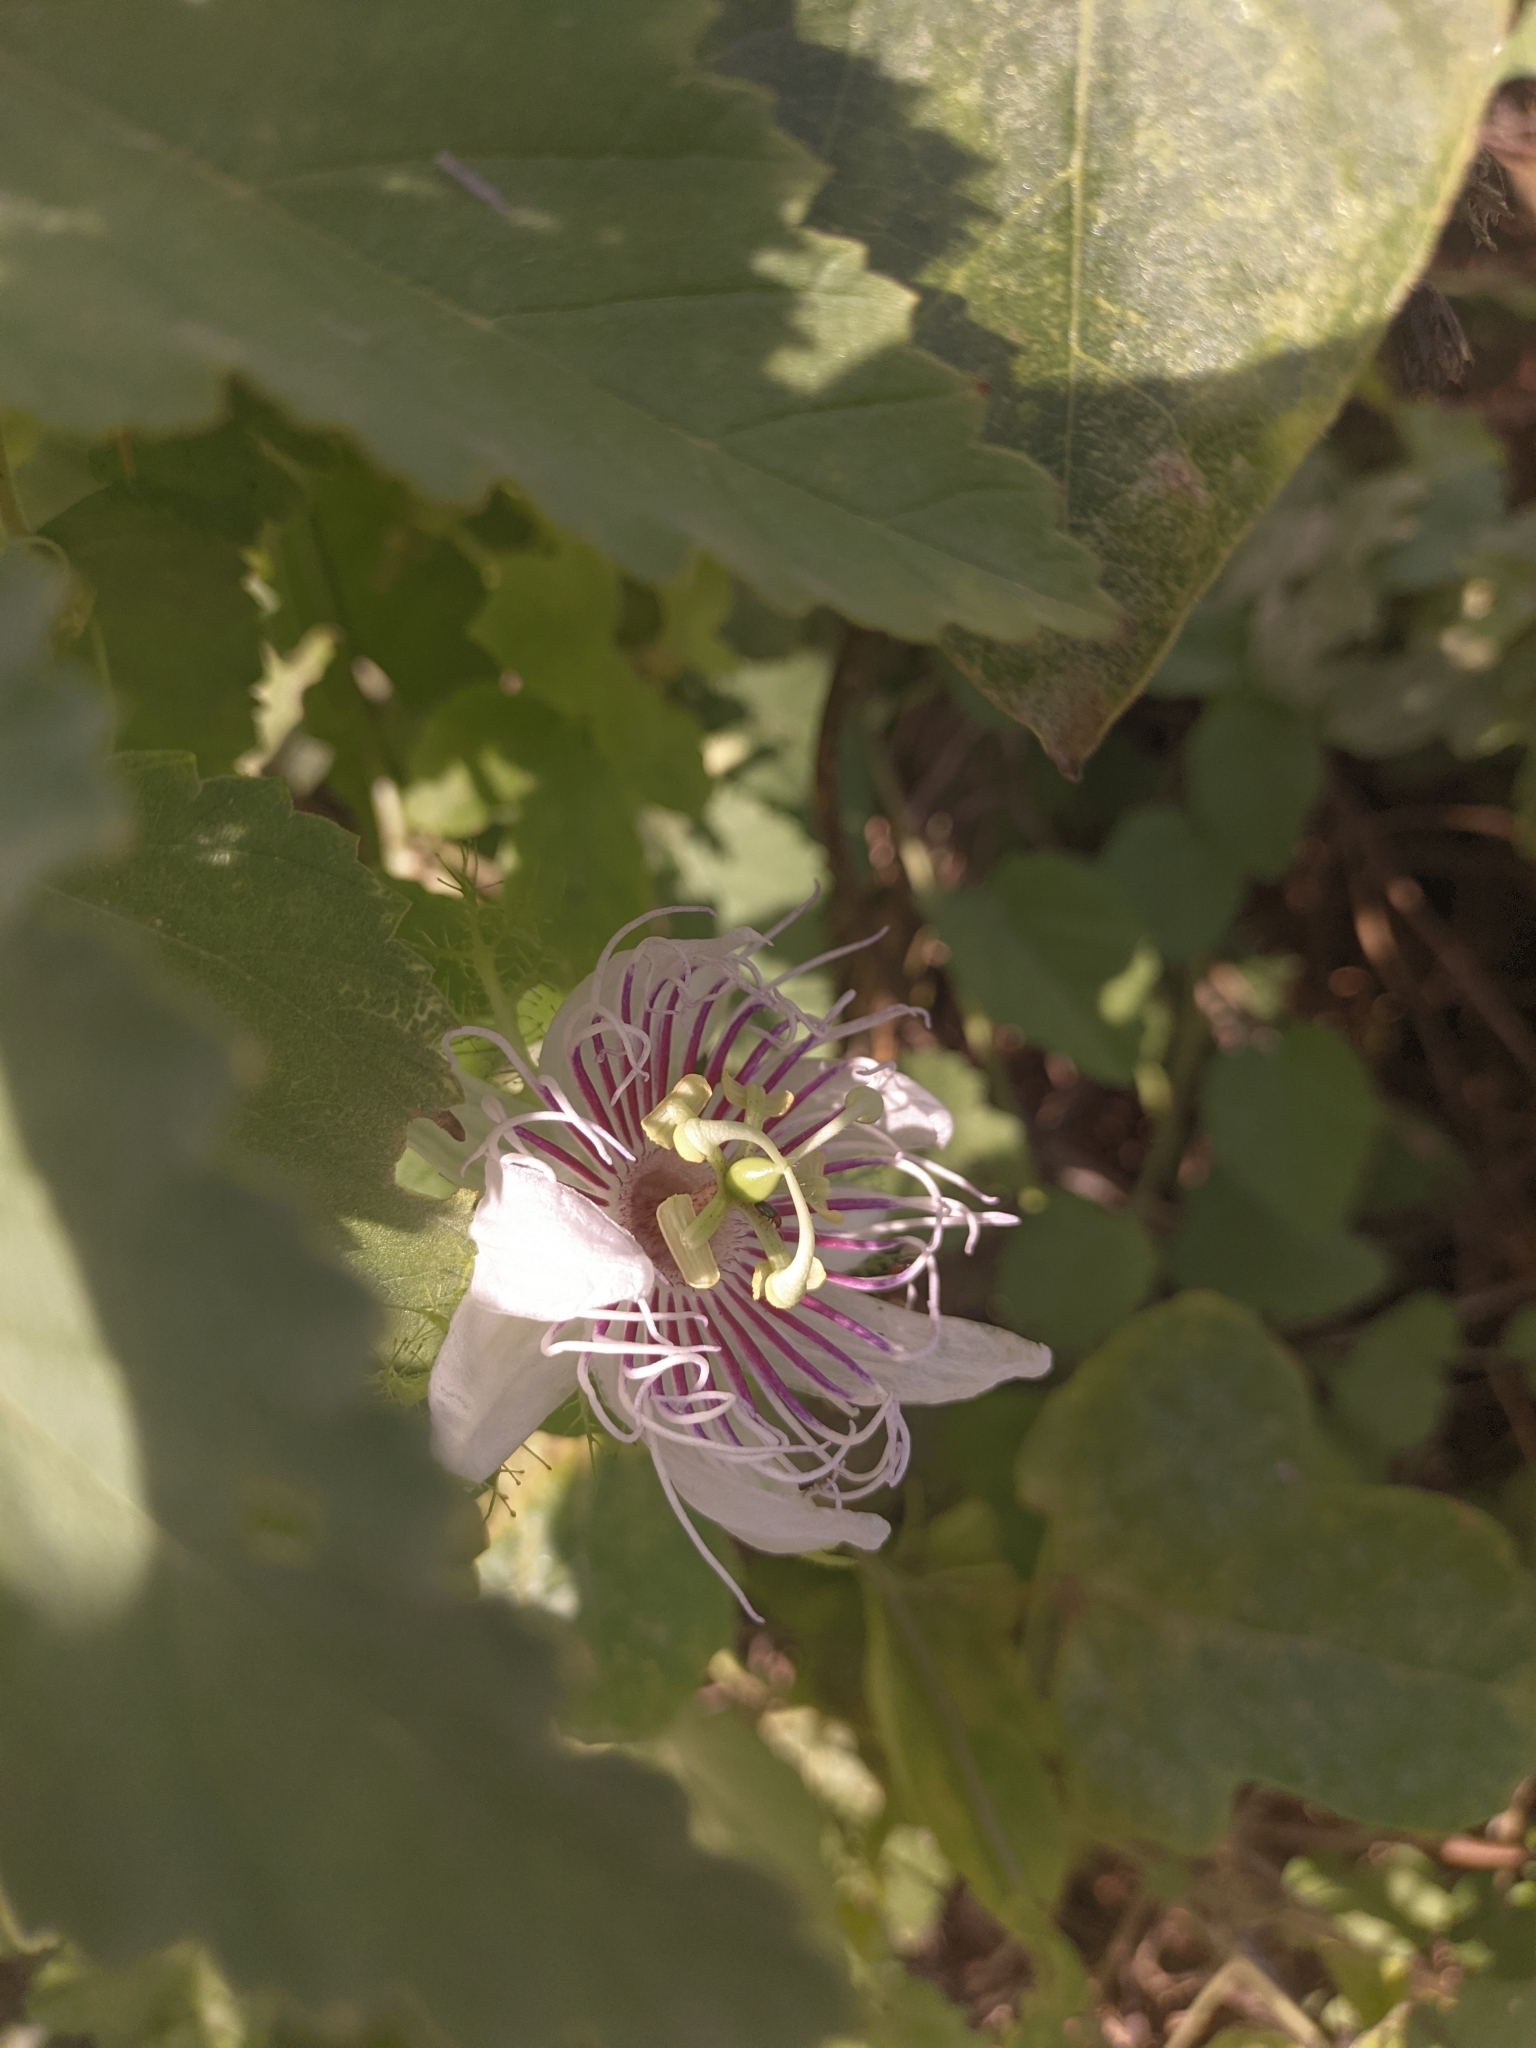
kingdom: Plantae
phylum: Tracheophyta
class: Magnoliopsida
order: Malpighiales
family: Passifloraceae
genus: Passiflora
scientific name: Passiflora foetida
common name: Fetid passionflower
